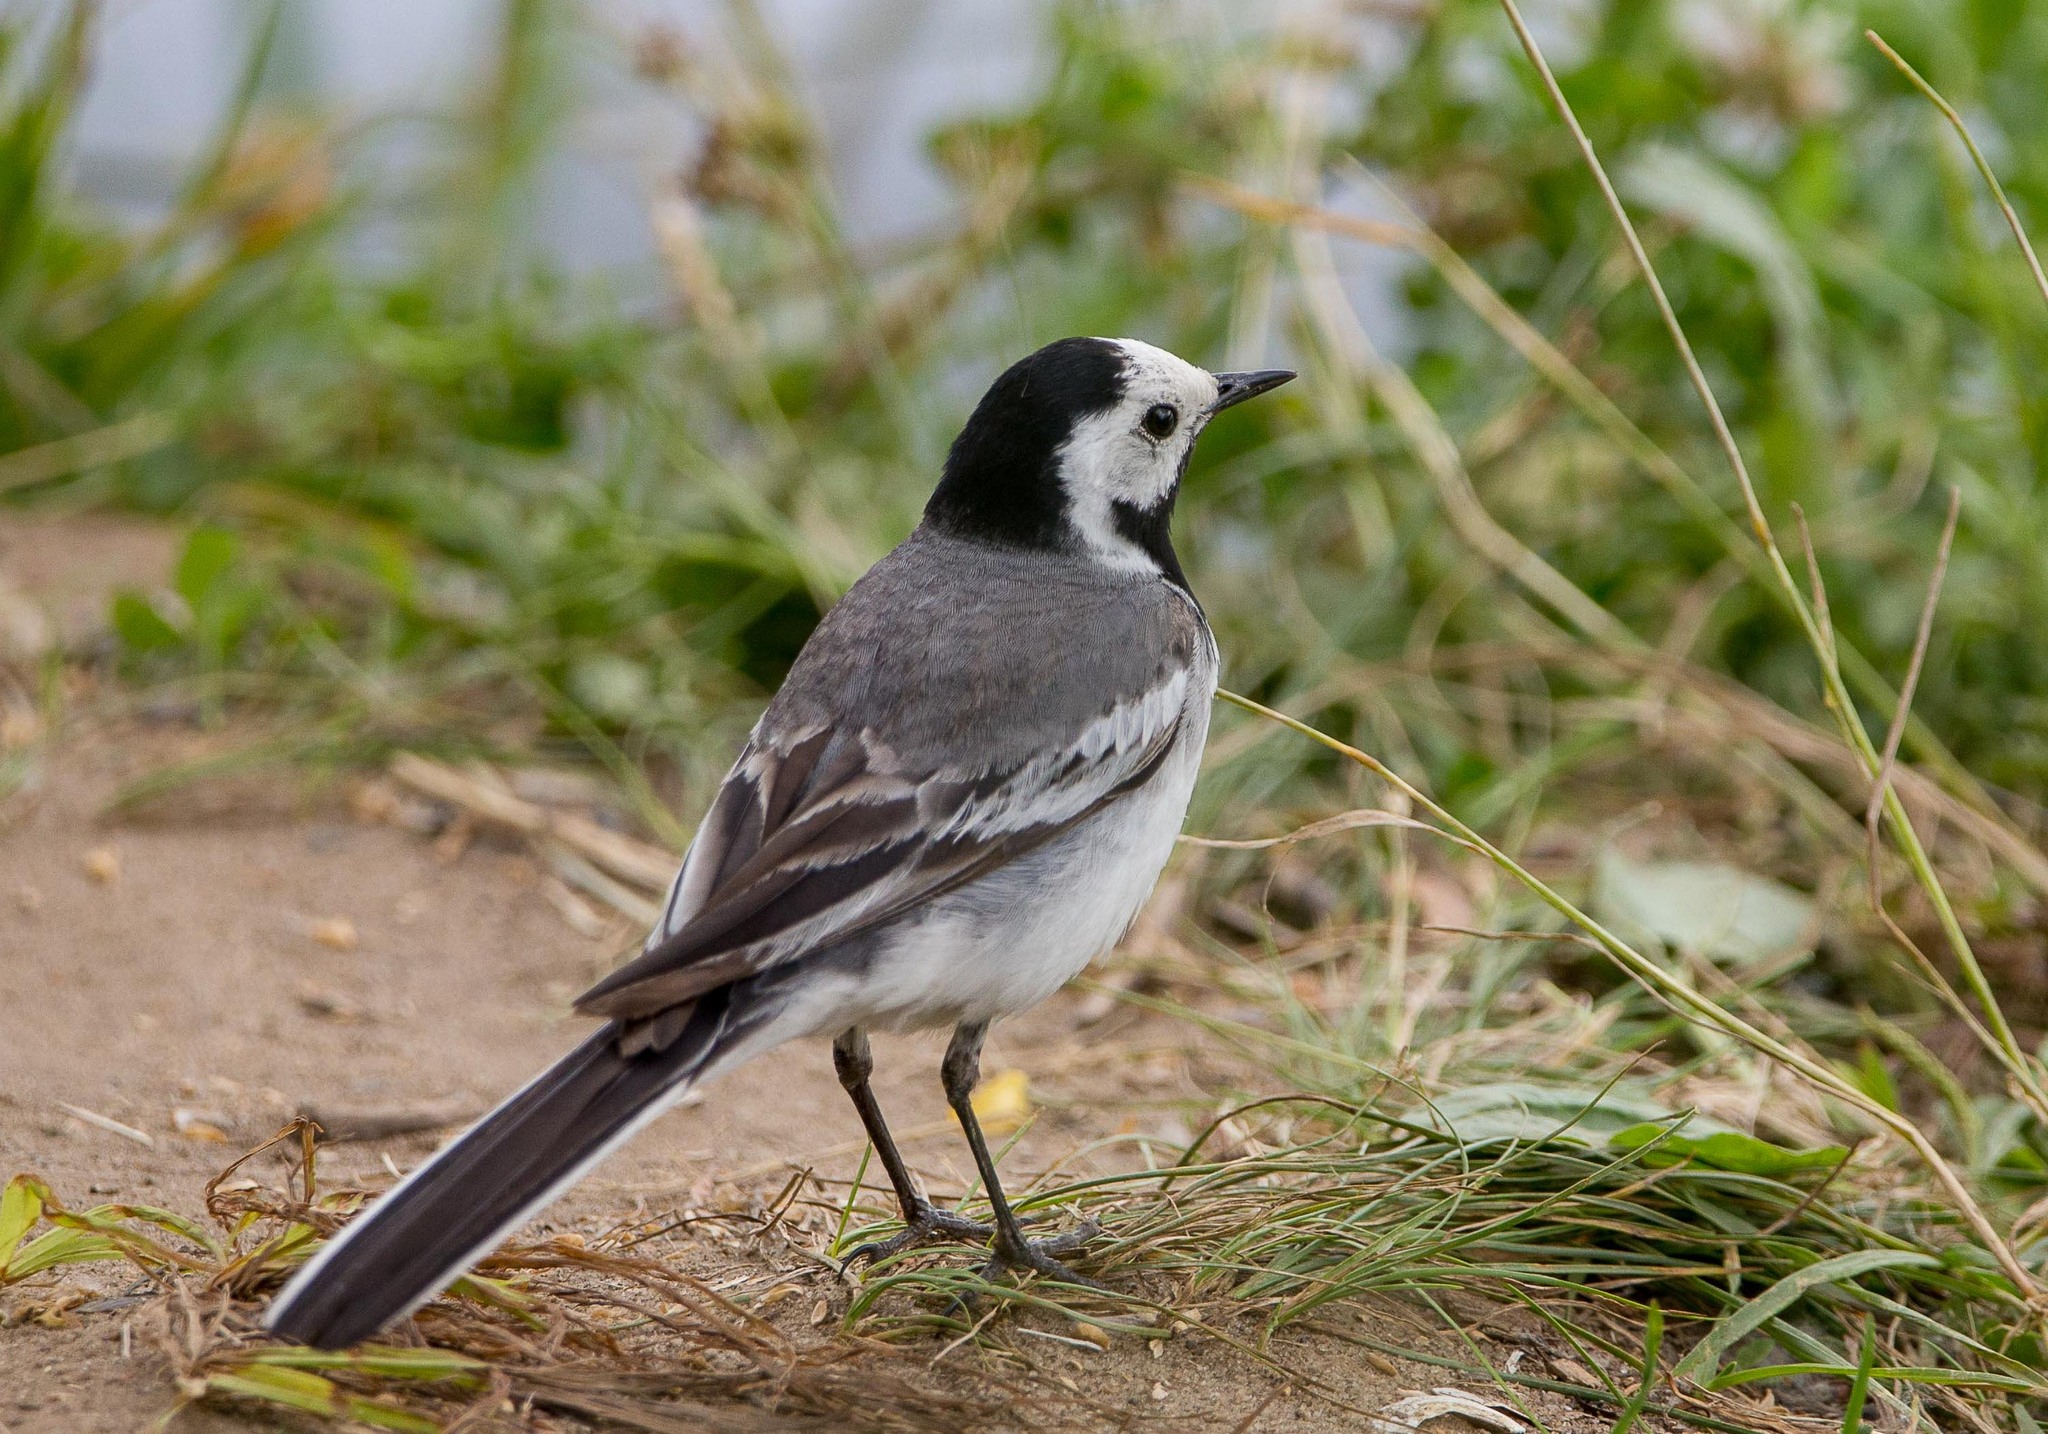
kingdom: Animalia
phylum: Chordata
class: Aves
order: Passeriformes
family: Motacillidae
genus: Motacilla
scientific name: Motacilla alba
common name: White wagtail
